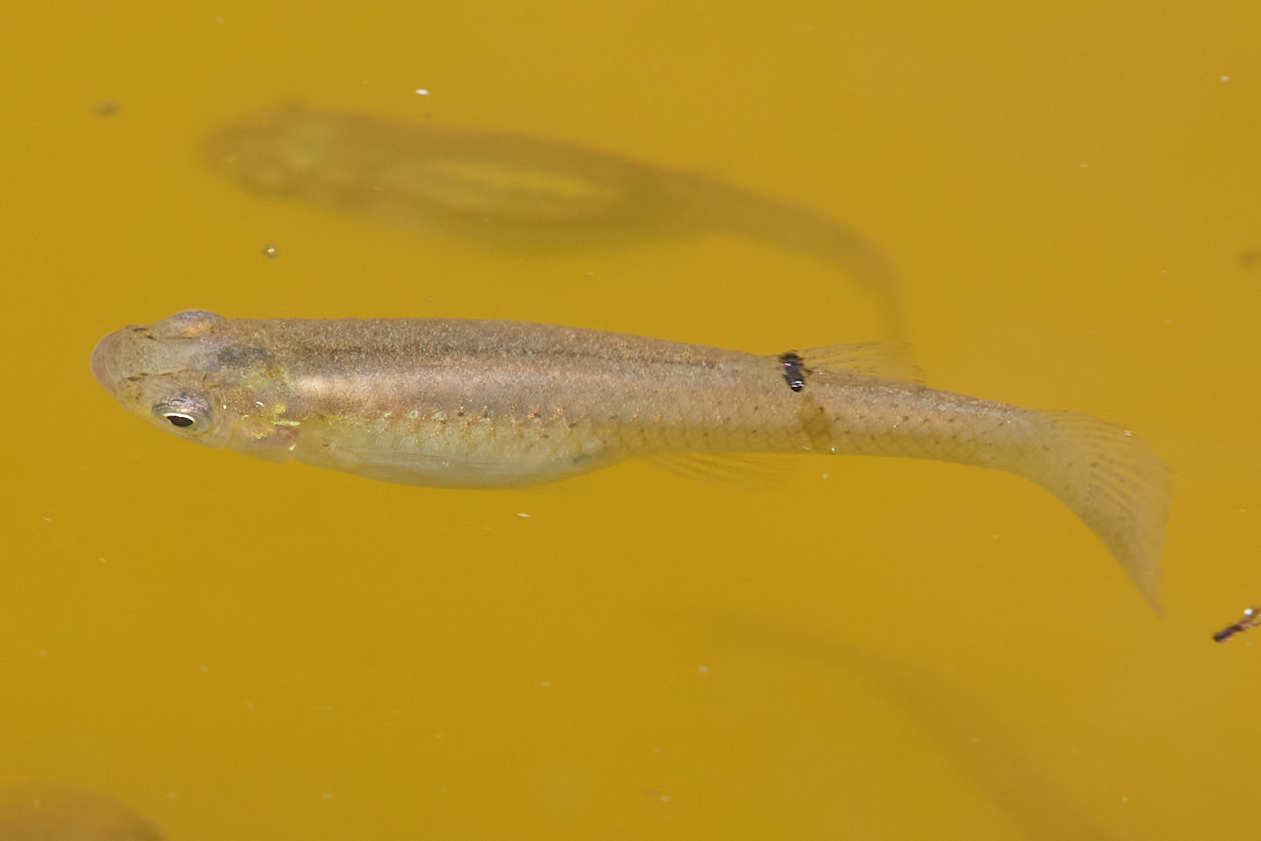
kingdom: Animalia
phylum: Chordata
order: Cyprinodontiformes
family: Poeciliidae
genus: Gambusia
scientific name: Gambusia affinis
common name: Mosquitofish
